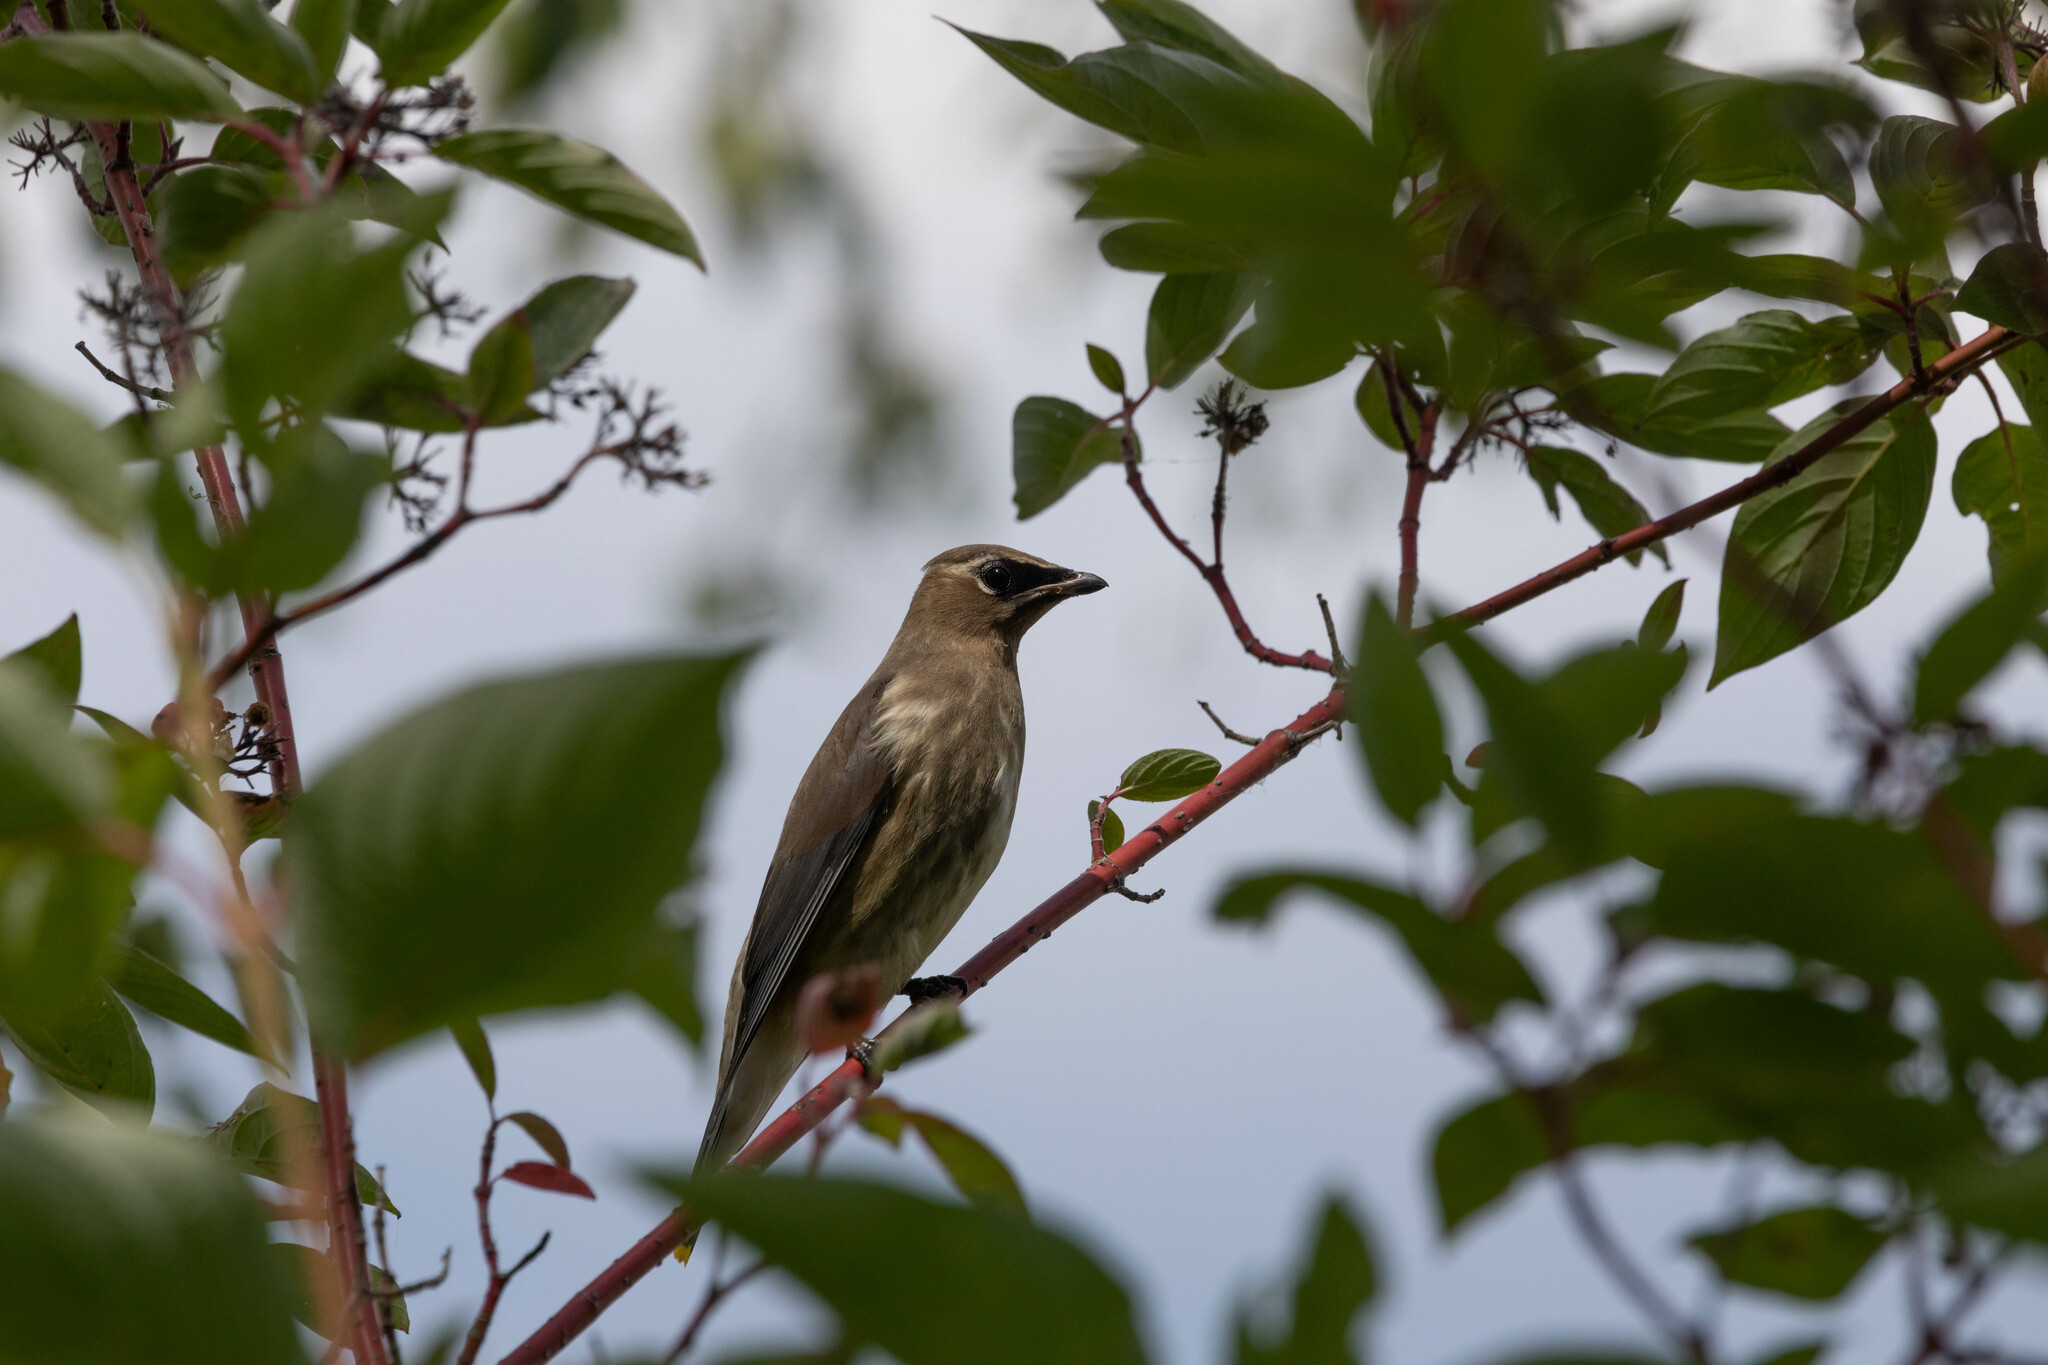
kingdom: Animalia
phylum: Chordata
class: Aves
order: Passeriformes
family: Bombycillidae
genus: Bombycilla
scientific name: Bombycilla cedrorum
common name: Cedar waxwing
